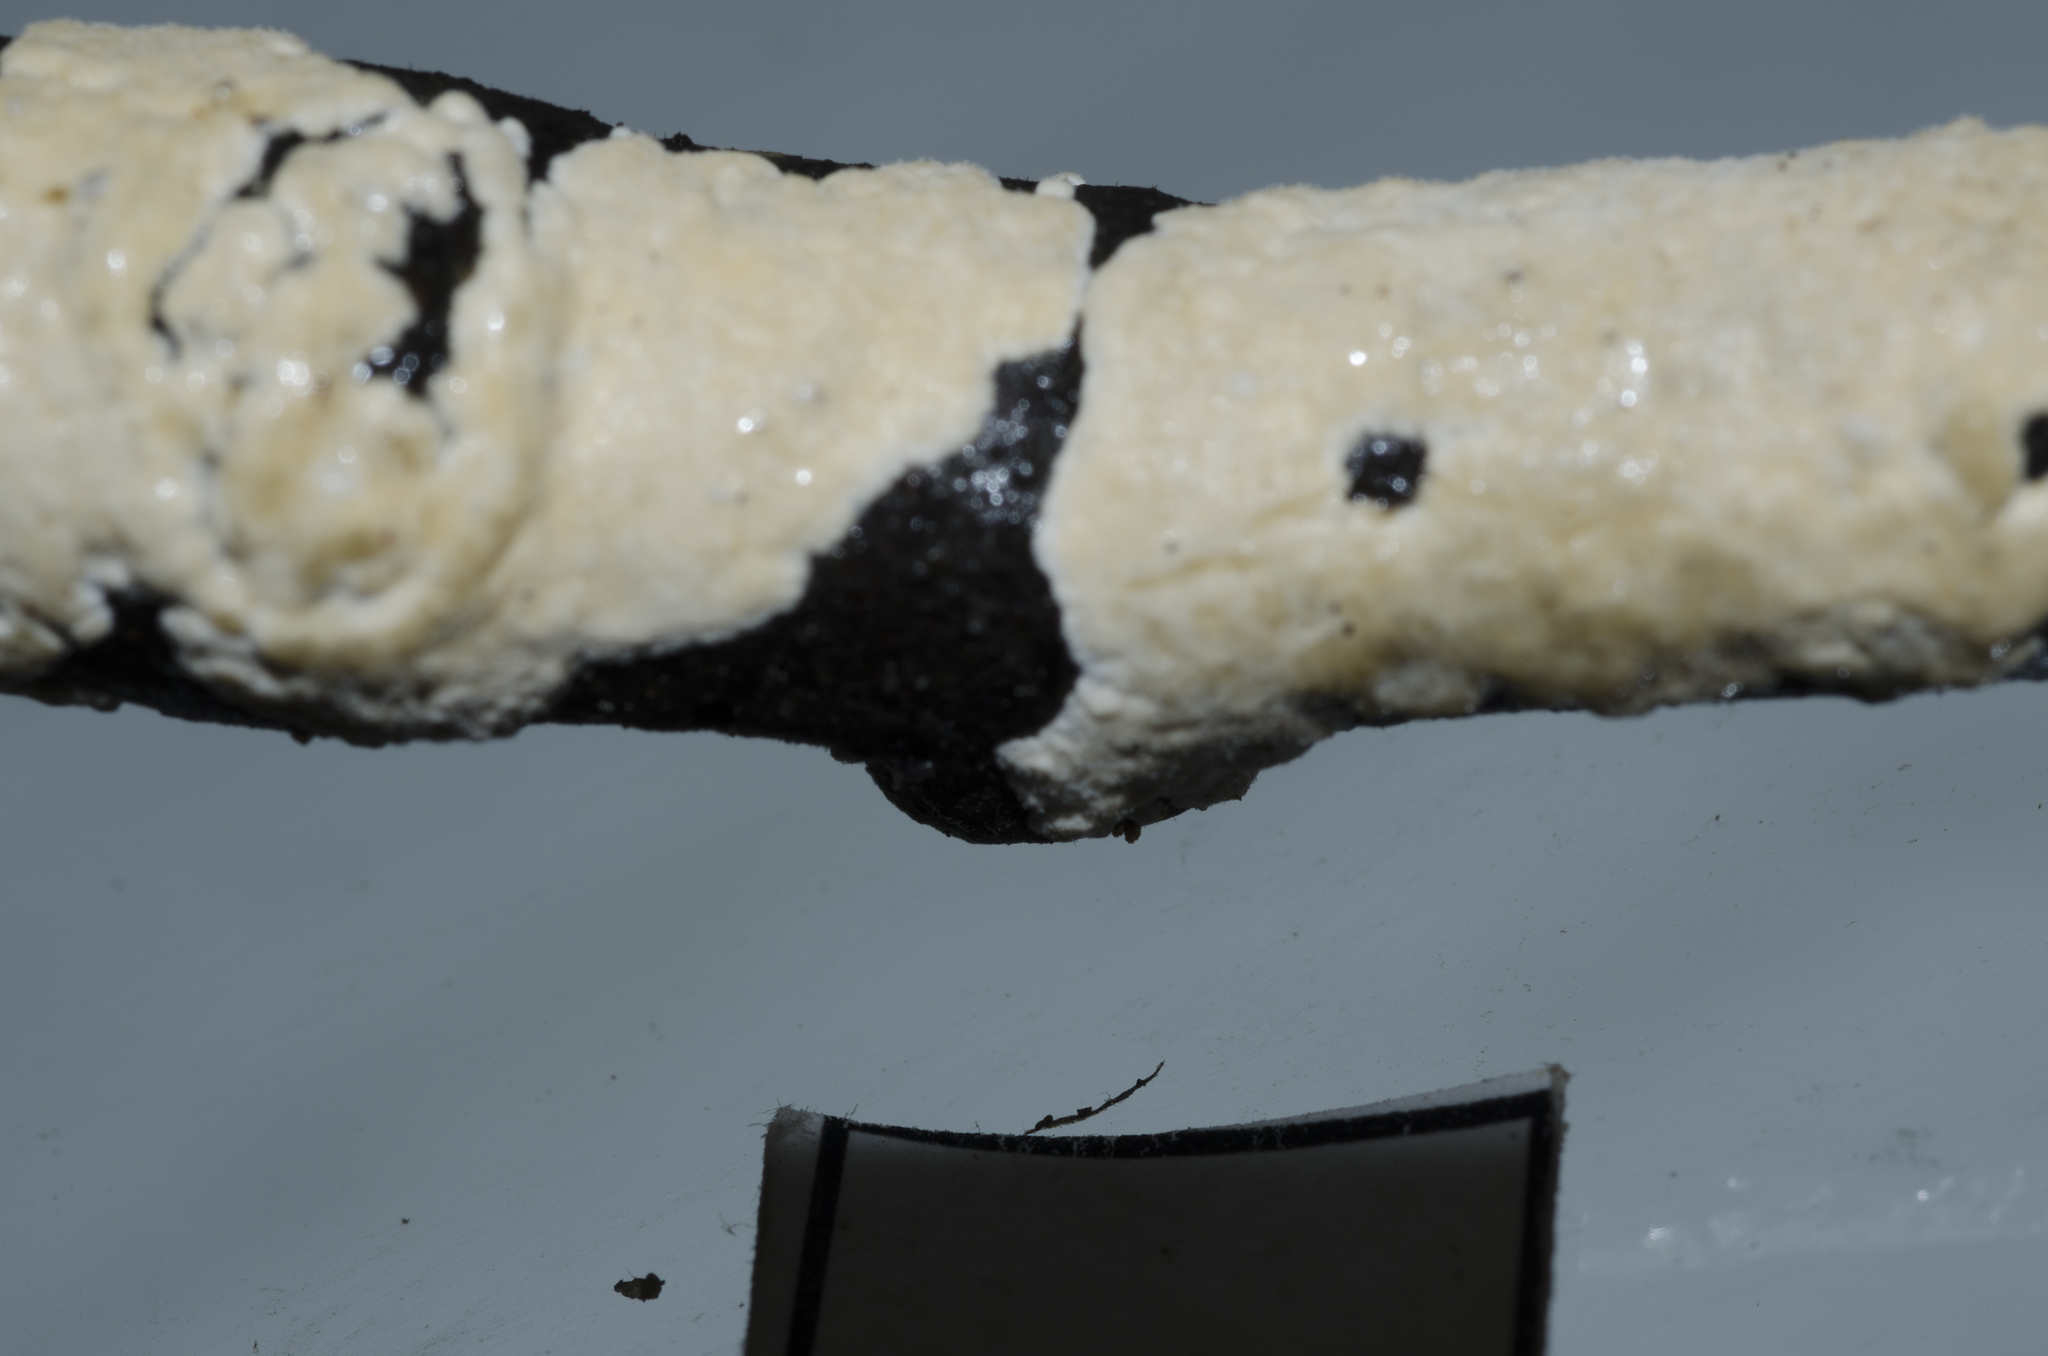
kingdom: Fungi
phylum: Basidiomycota
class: Agaricomycetes
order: Russulales
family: Stereaceae
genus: Aleurodiscus
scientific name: Aleurodiscus coralloides
